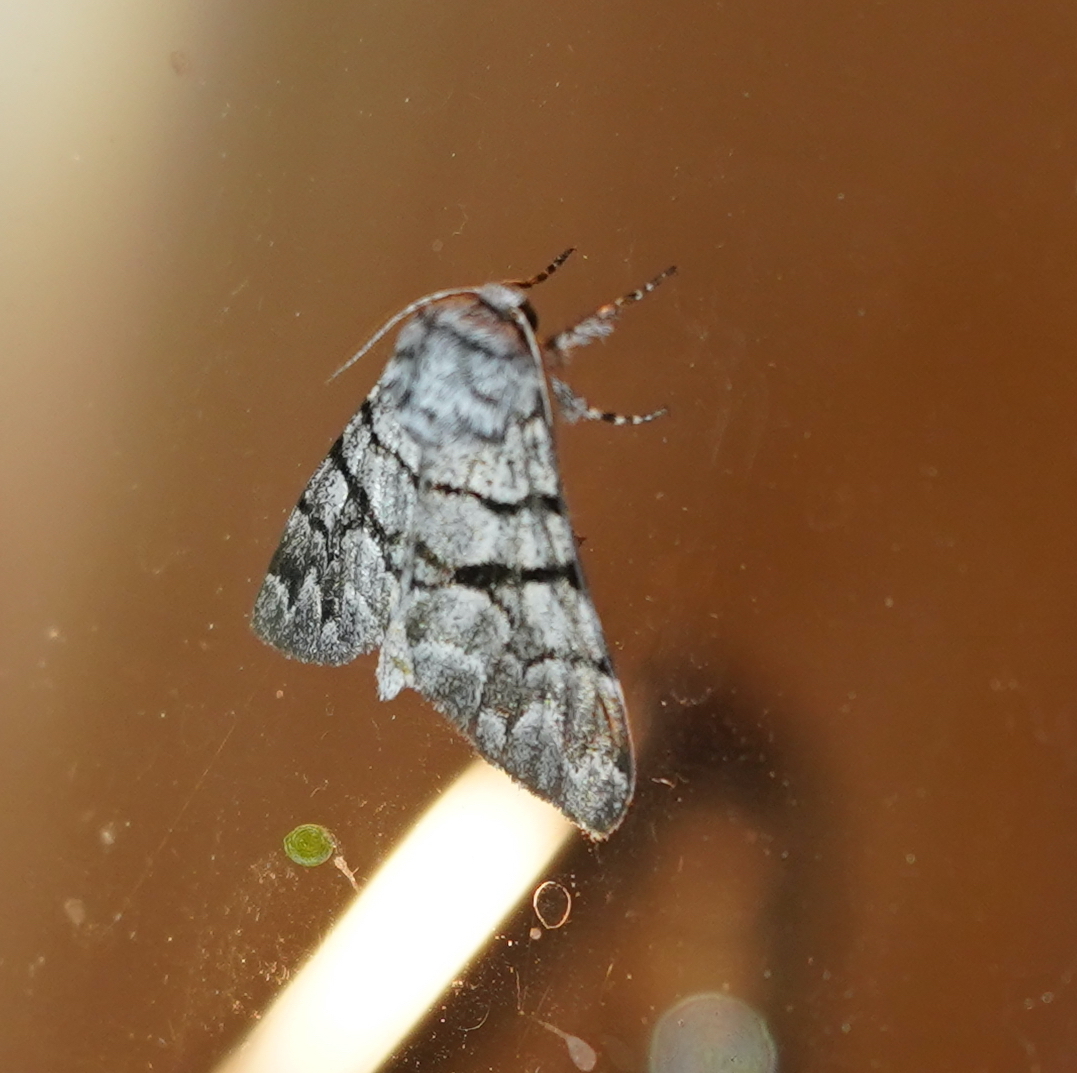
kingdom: Animalia
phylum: Arthropoda
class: Insecta
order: Lepidoptera
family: Noctuidae
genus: Panthea
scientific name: Panthea furcilla
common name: Eastern panthea moth
